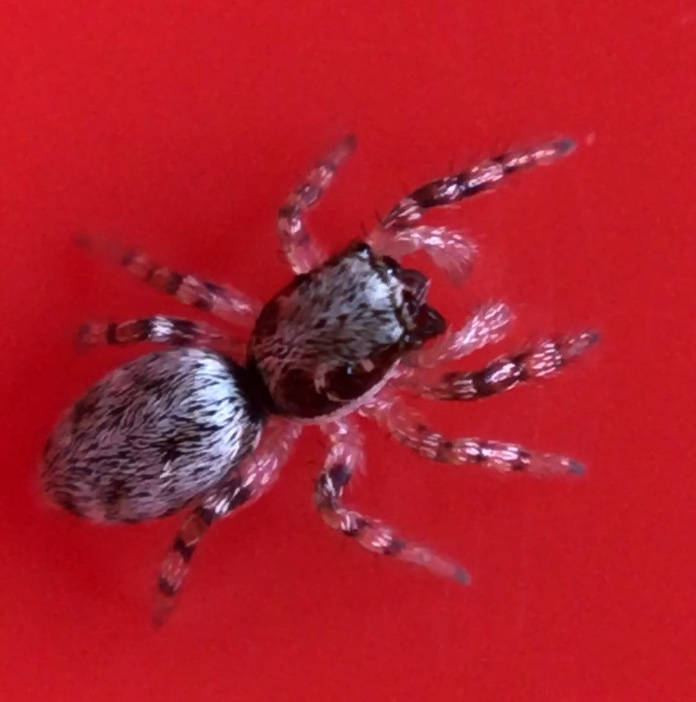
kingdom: Animalia
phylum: Arthropoda
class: Arachnida
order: Araneae
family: Salticidae
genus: Salticus
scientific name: Salticus mutabilis
